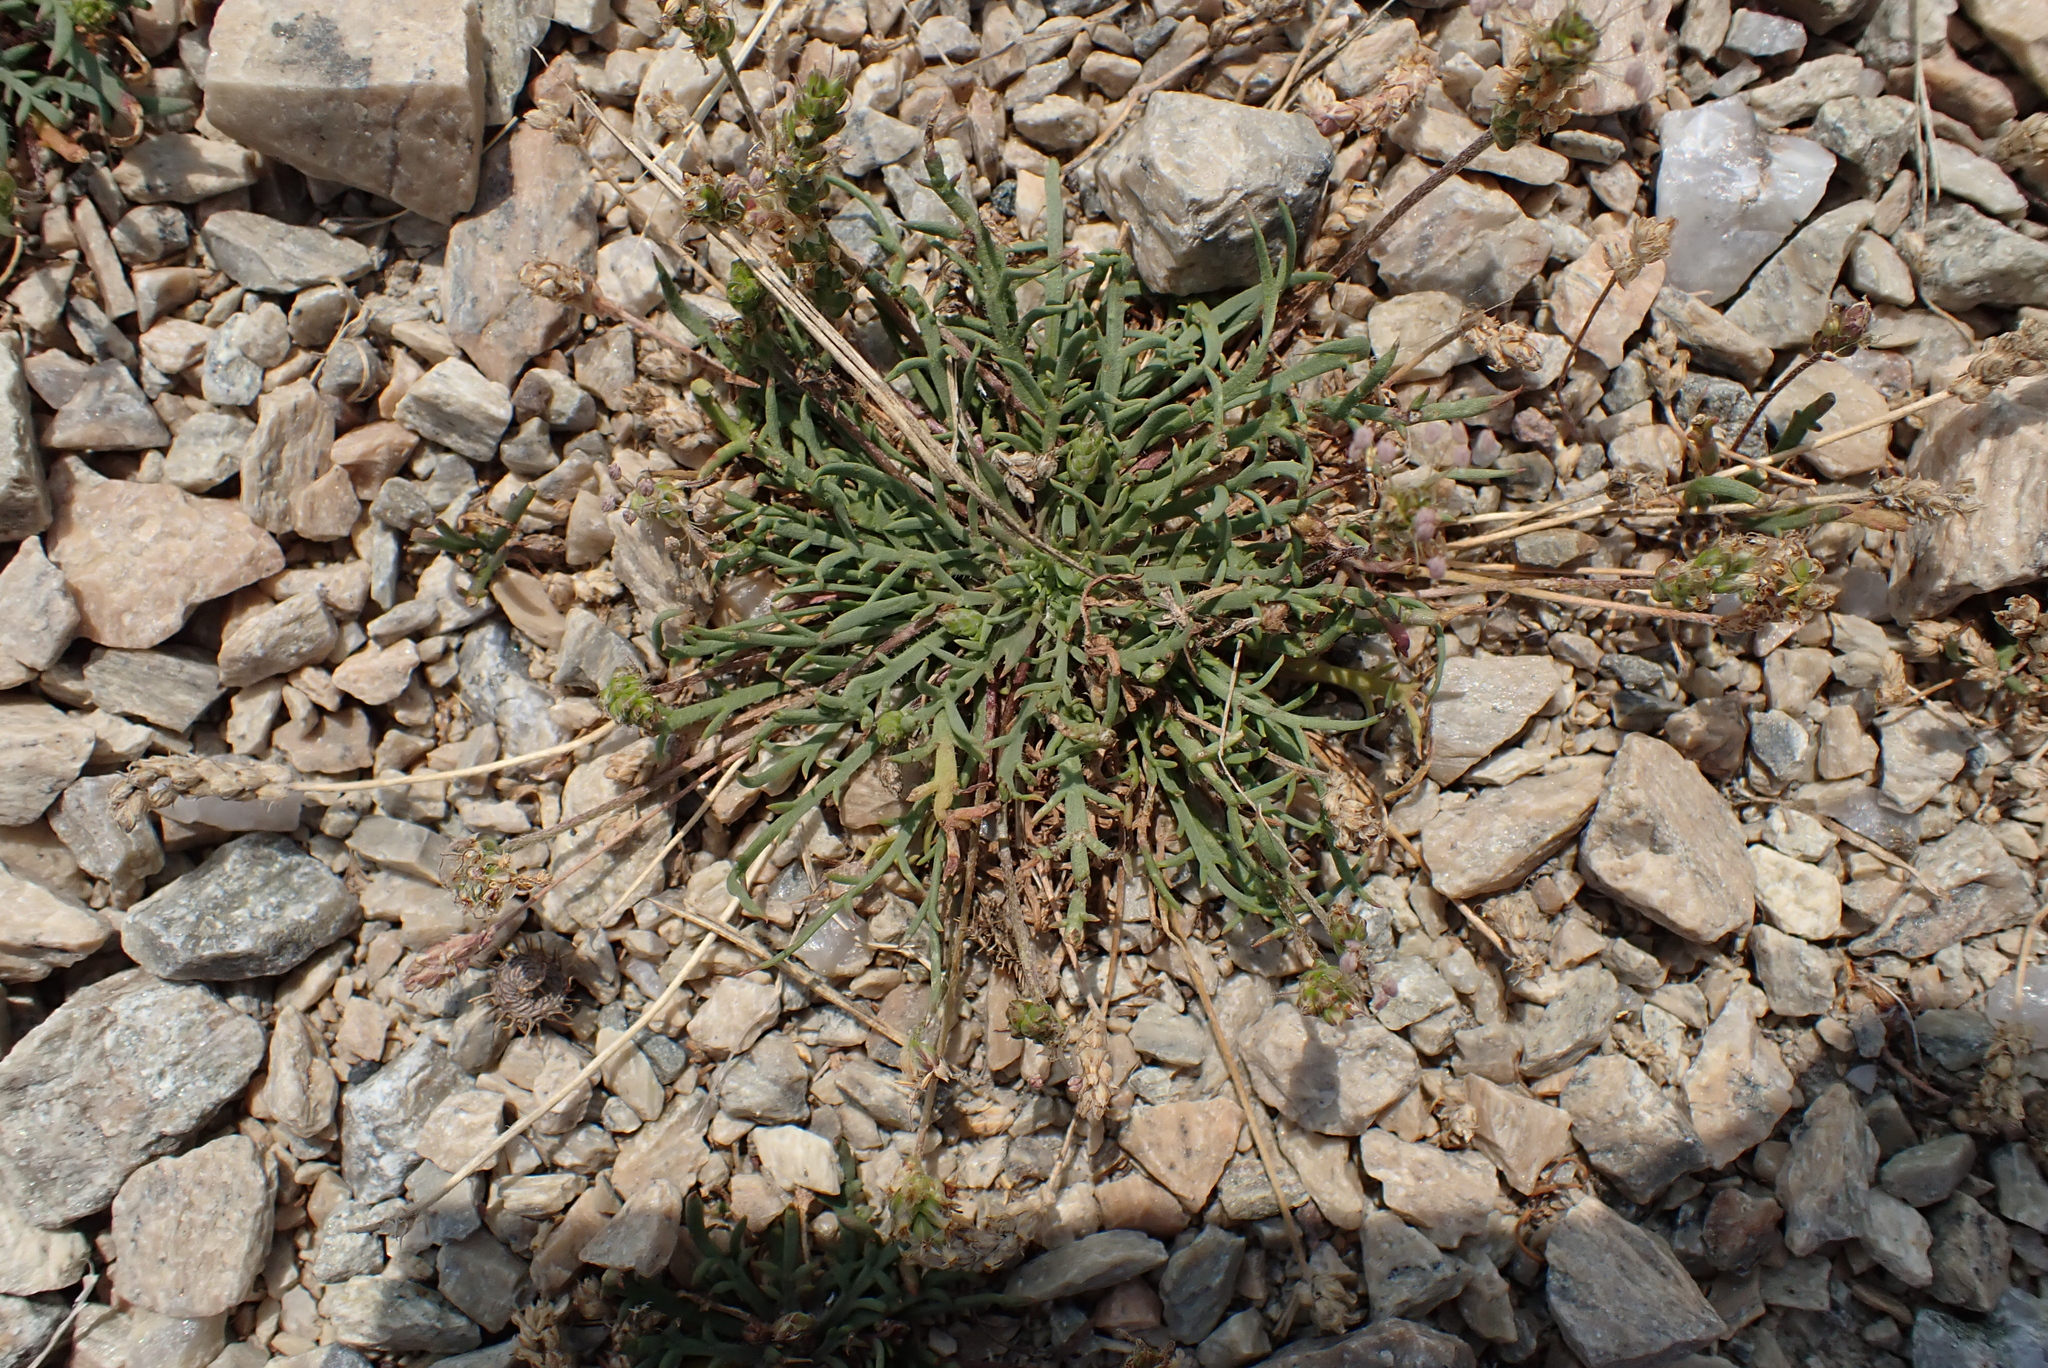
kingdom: Plantae
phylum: Tracheophyta
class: Magnoliopsida
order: Lamiales
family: Plantaginaceae
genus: Plantago
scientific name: Plantago coronopus
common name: Buck's-horn plantain
